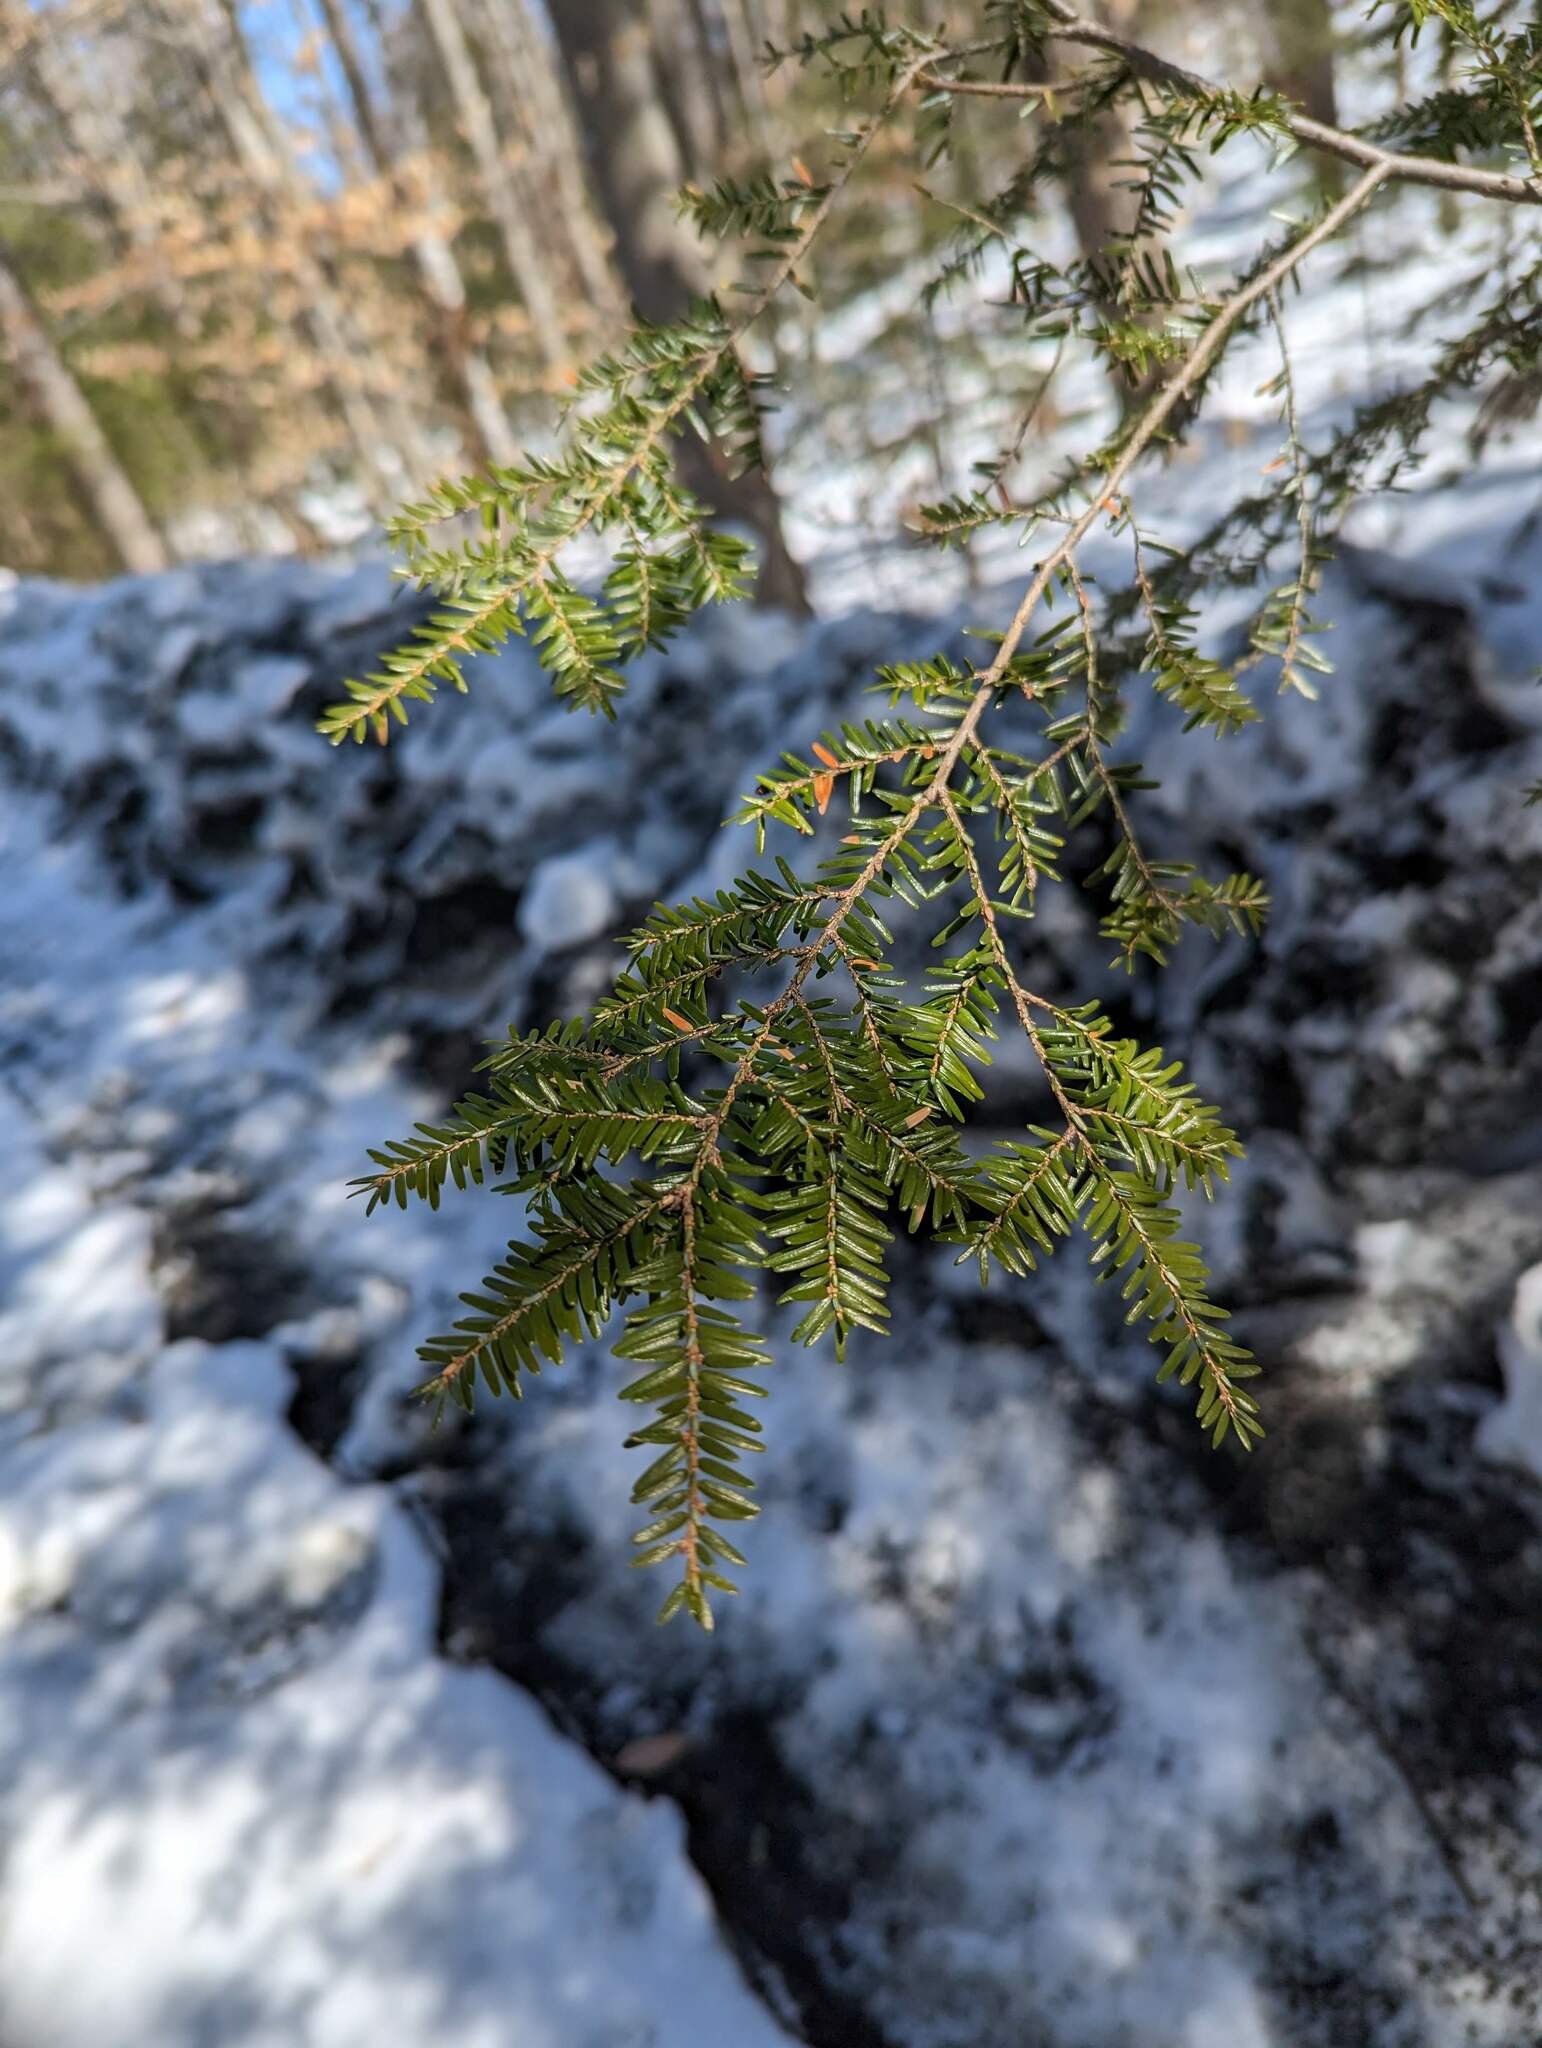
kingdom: Plantae
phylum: Tracheophyta
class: Pinopsida
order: Pinales
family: Pinaceae
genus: Tsuga
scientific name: Tsuga canadensis
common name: Eastern hemlock
